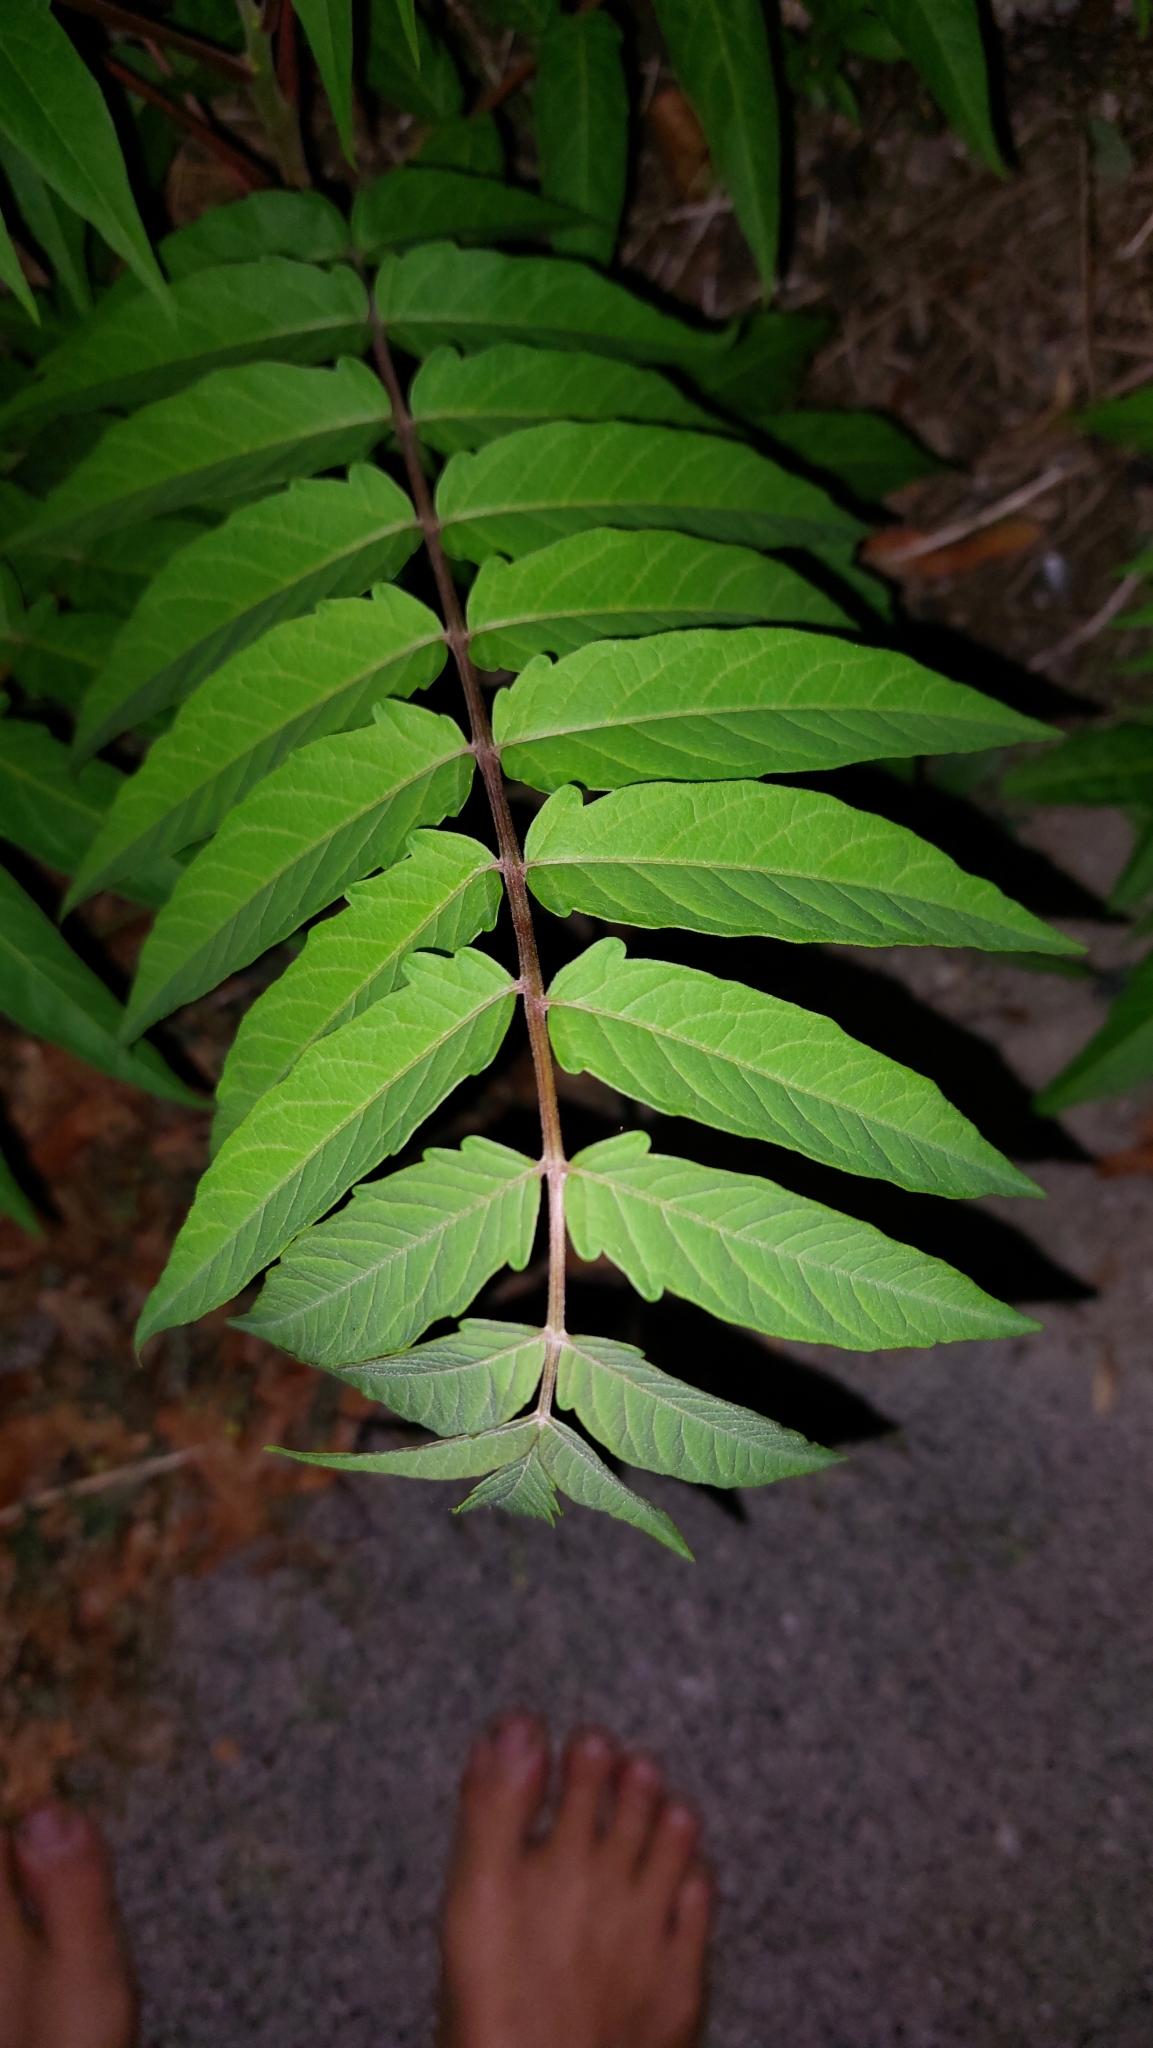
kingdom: Plantae
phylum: Tracheophyta
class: Magnoliopsida
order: Sapindales
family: Simaroubaceae
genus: Ailanthus
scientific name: Ailanthus altissima
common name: Tree-of-heaven
